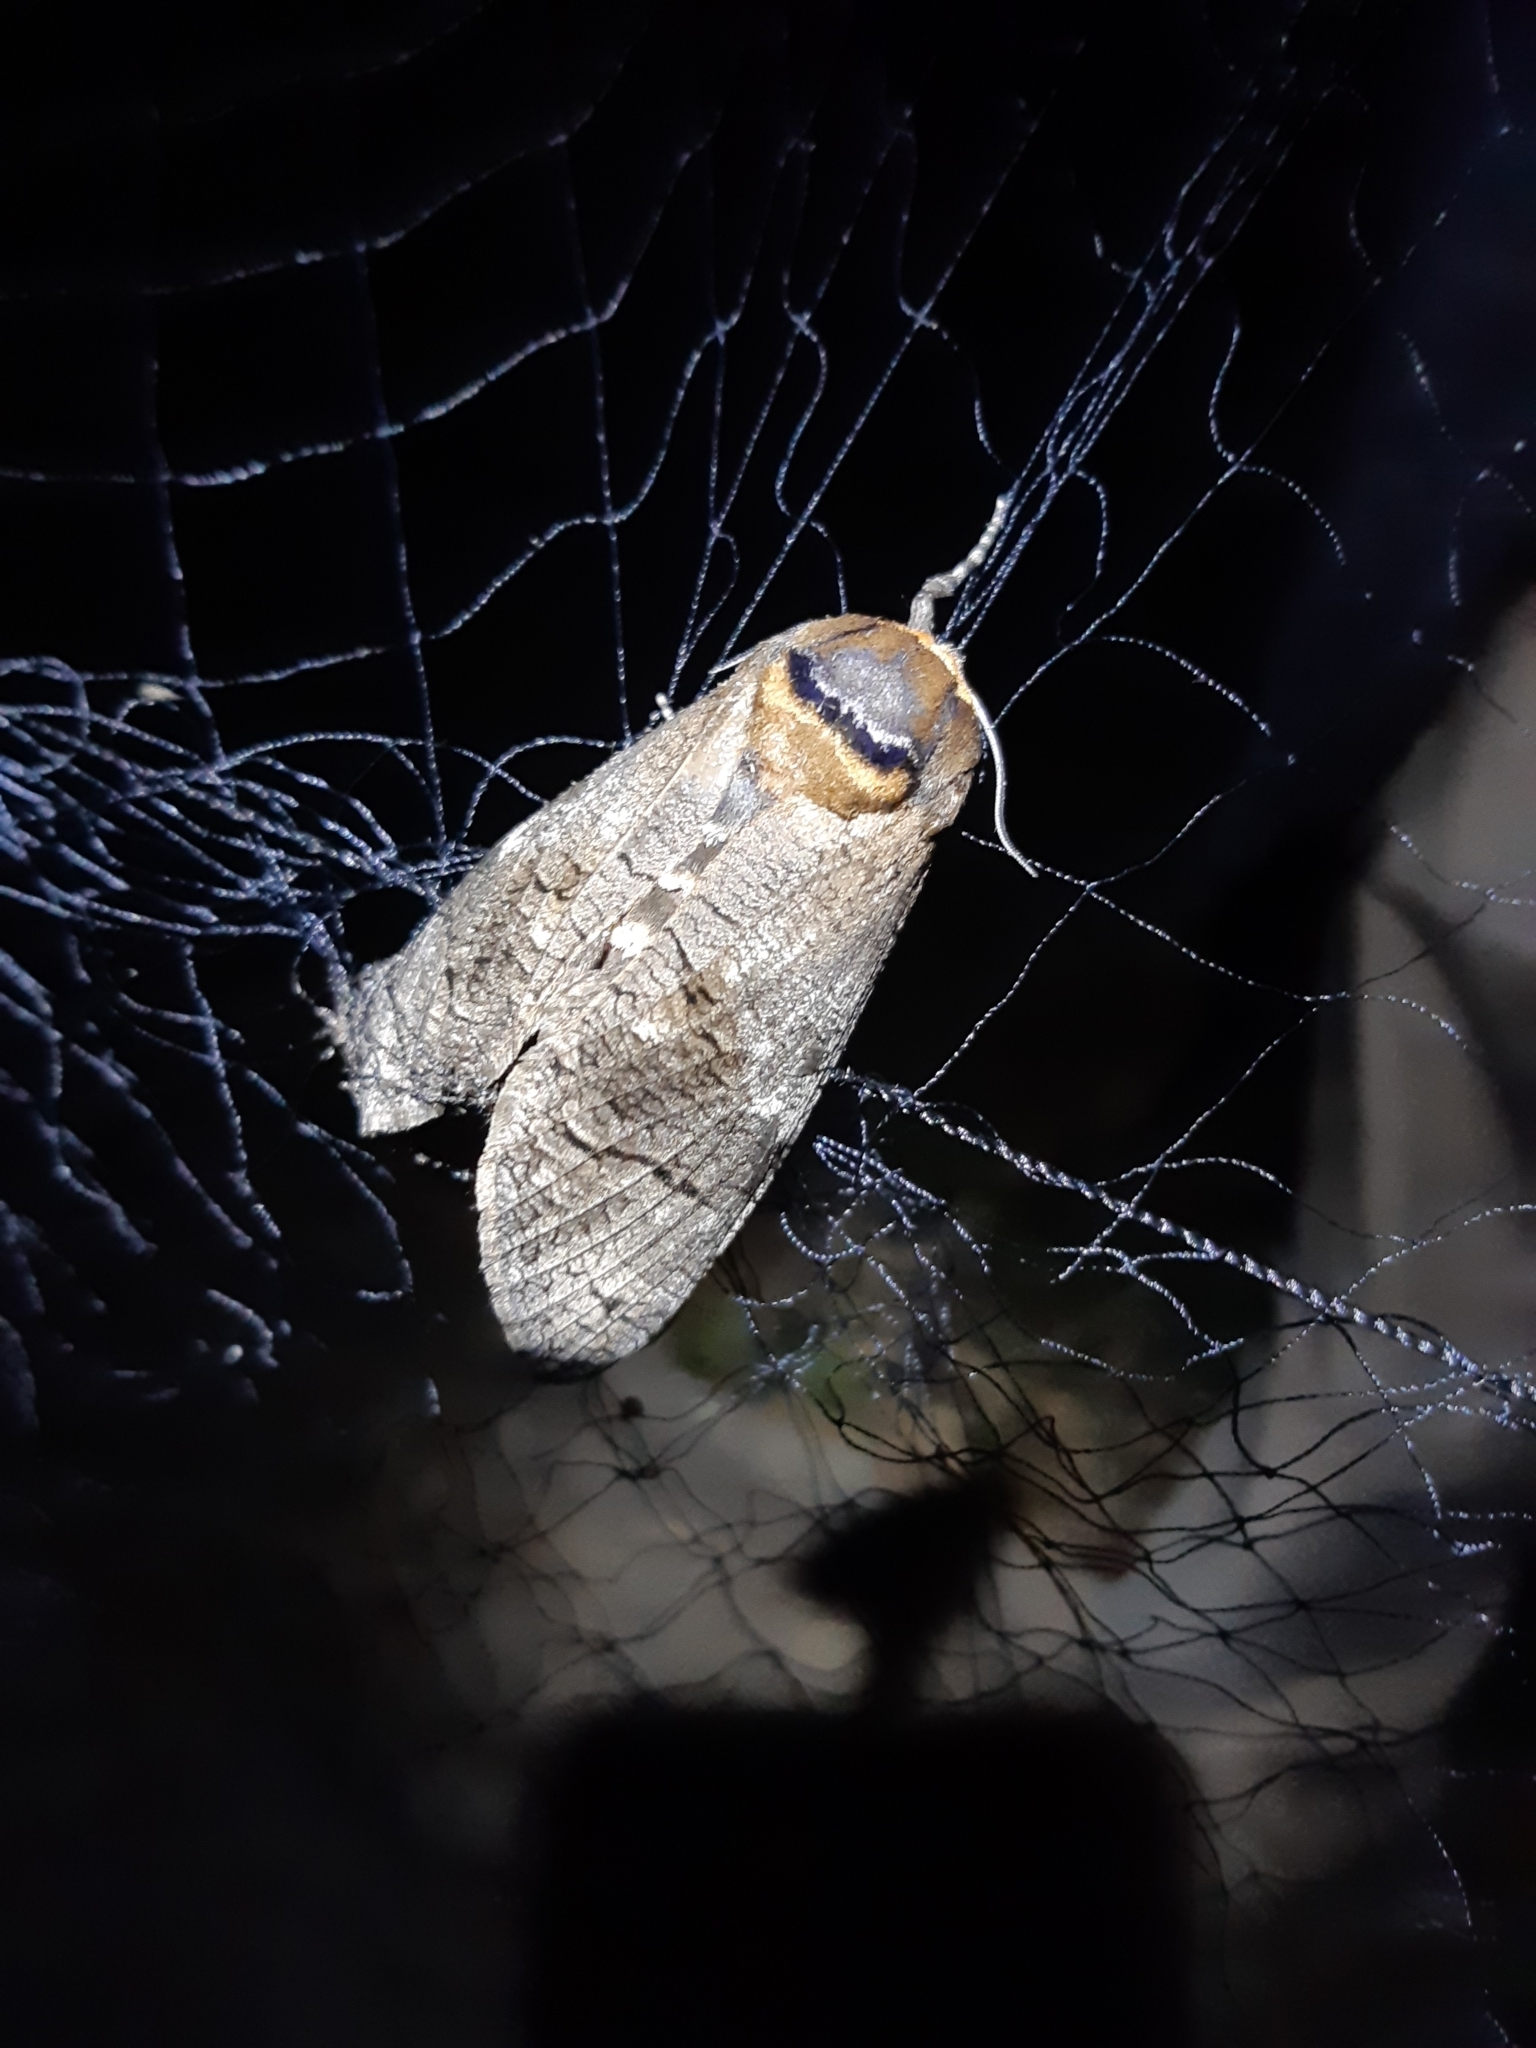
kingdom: Animalia
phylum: Arthropoda
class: Insecta
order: Lepidoptera
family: Cossidae
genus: Cossus
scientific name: Cossus cossus
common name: Goat moth
